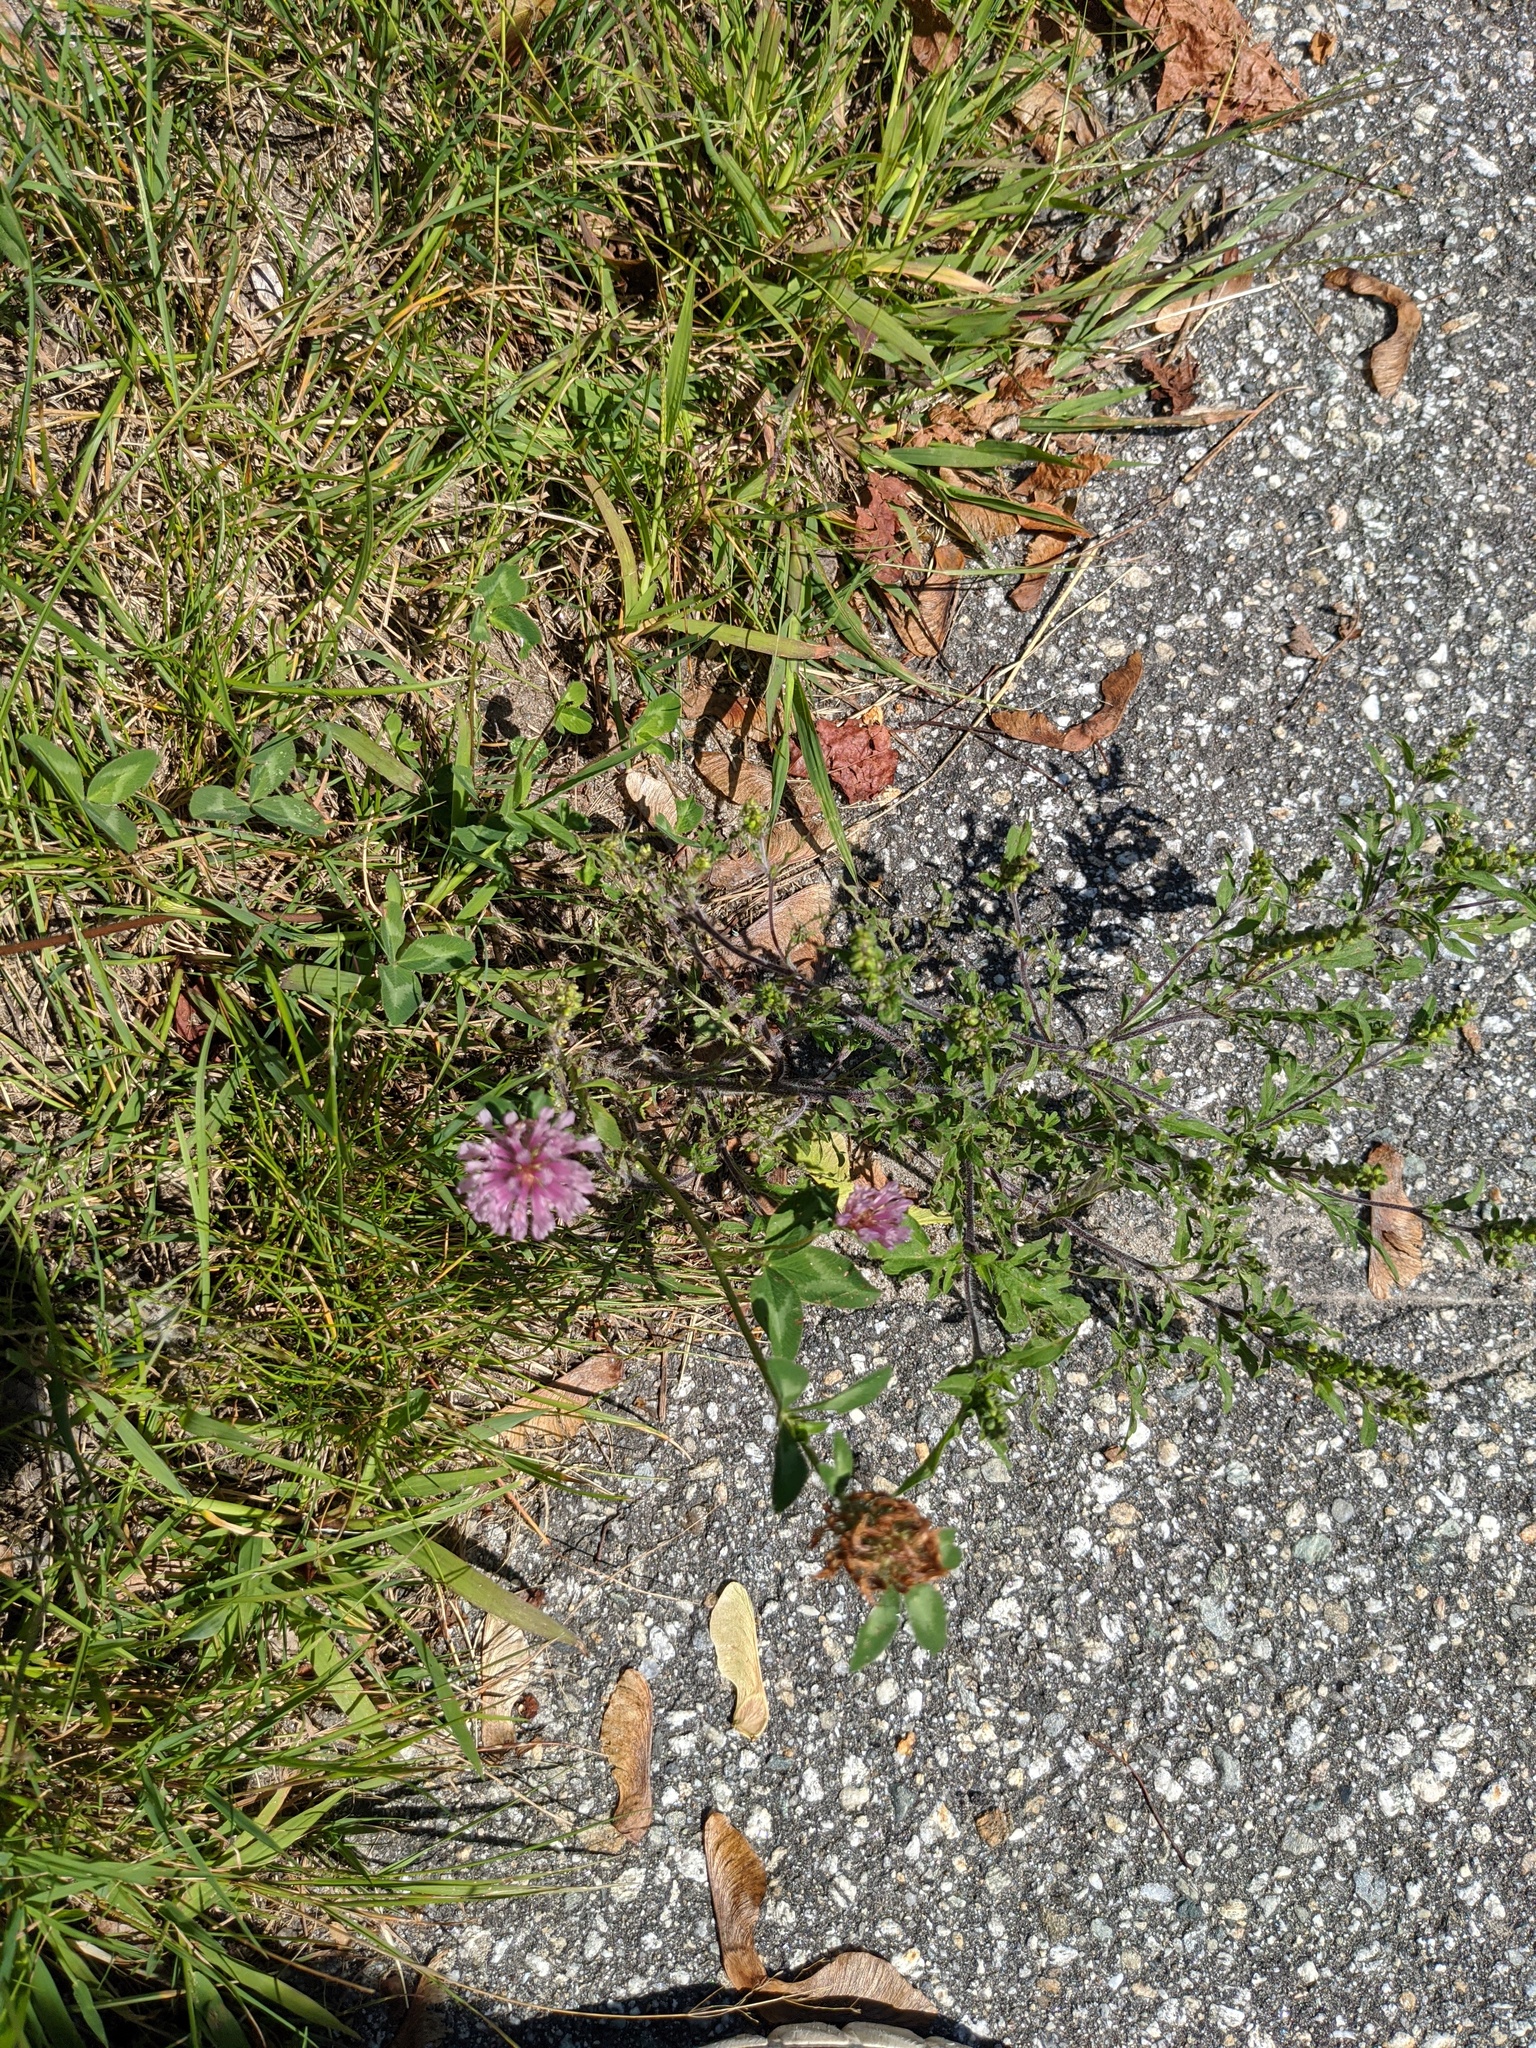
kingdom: Plantae
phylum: Tracheophyta
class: Magnoliopsida
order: Fabales
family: Fabaceae
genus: Trifolium
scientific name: Trifolium pratense
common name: Red clover
